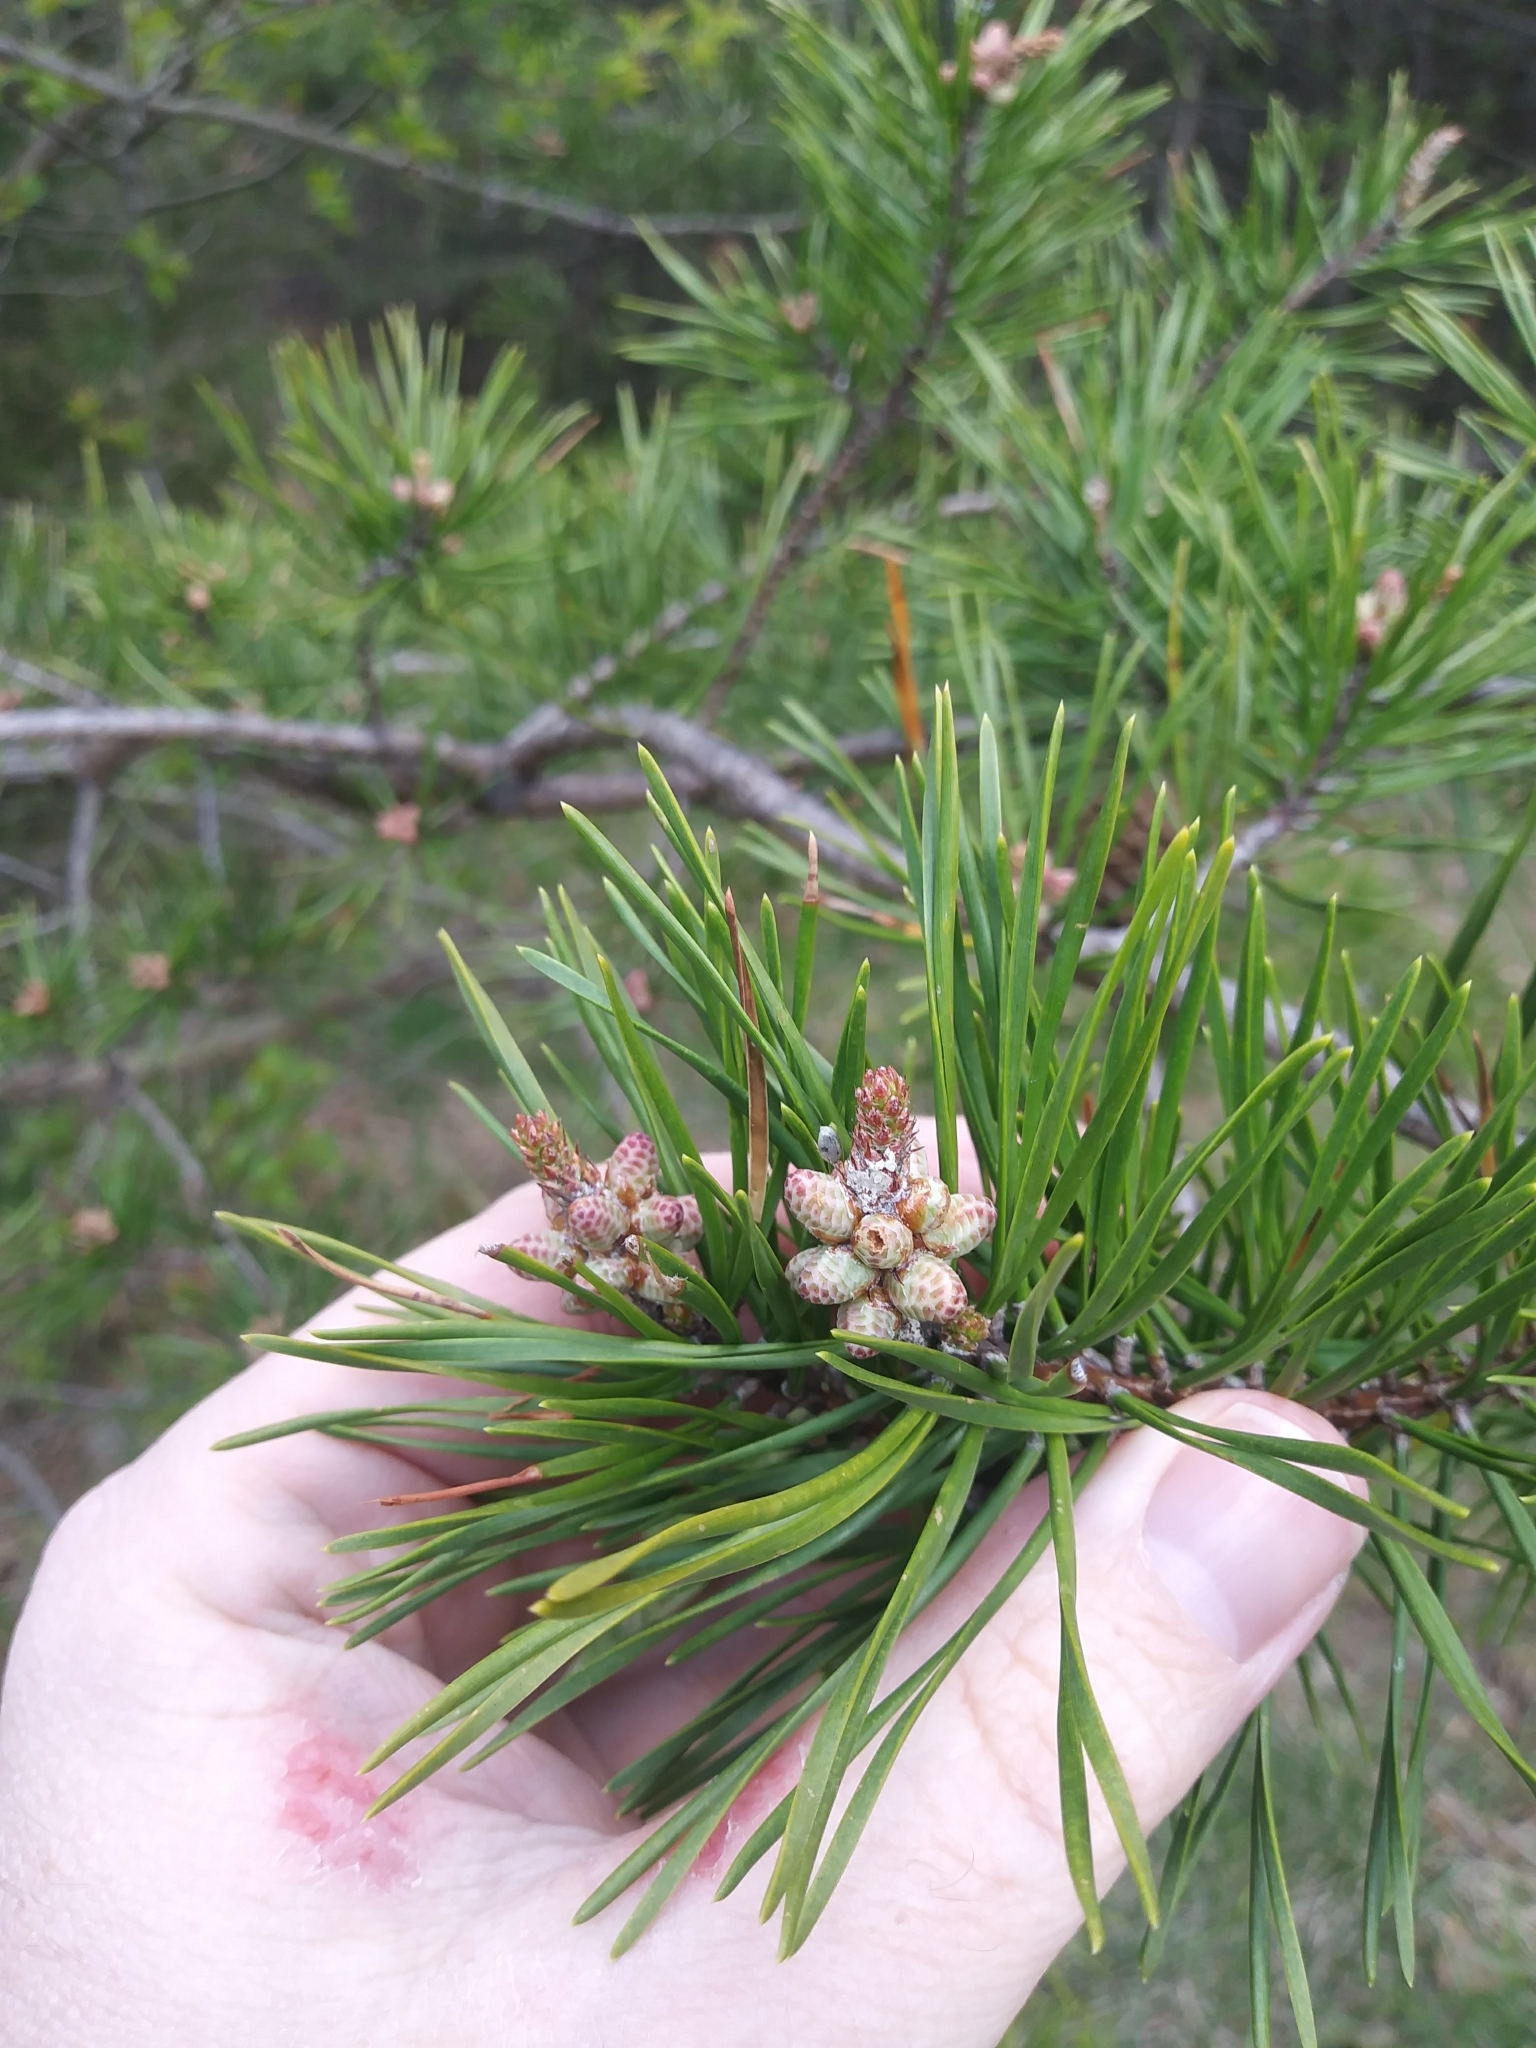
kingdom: Plantae
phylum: Tracheophyta
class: Pinopsida
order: Pinales
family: Pinaceae
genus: Pinus
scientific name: Pinus virginiana
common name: Scrub pine
